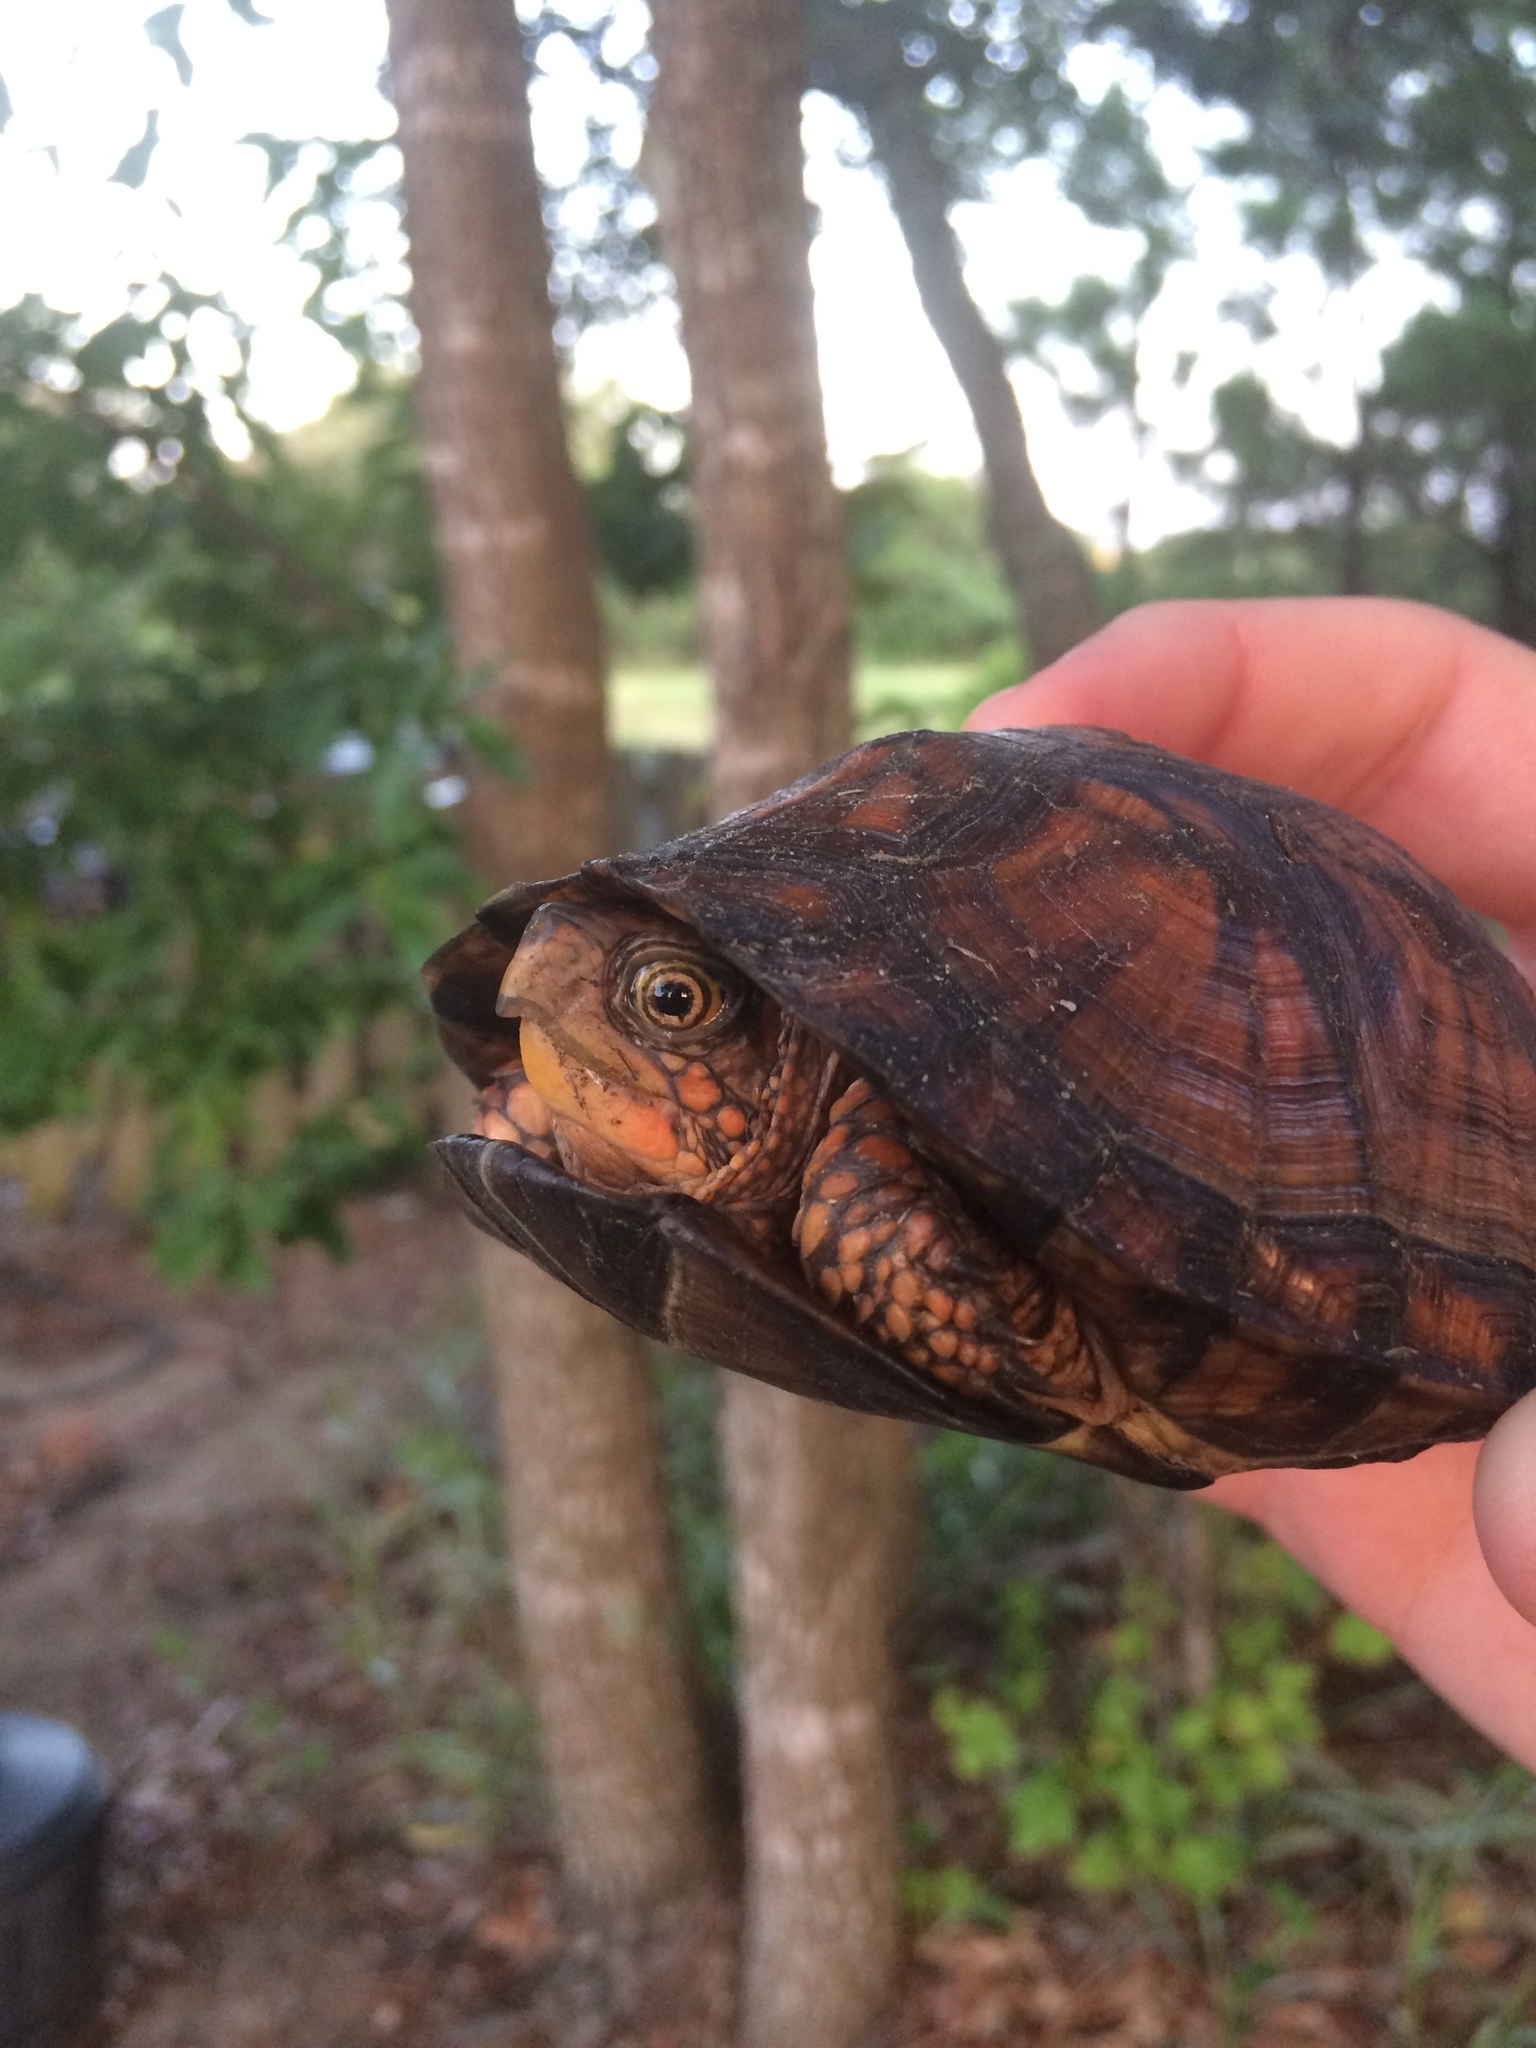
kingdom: Animalia
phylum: Chordata
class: Testudines
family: Emydidae
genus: Terrapene
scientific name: Terrapene carolina
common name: Common box turtle
